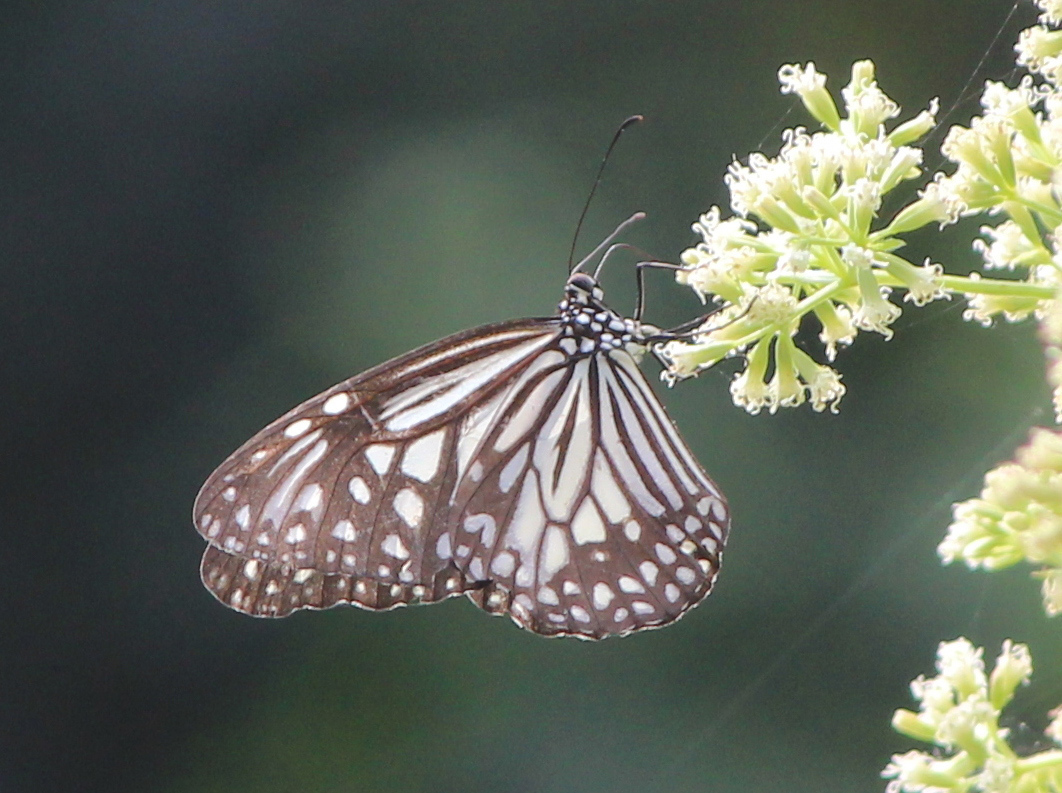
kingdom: Animalia
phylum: Arthropoda
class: Insecta
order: Lepidoptera
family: Nymphalidae
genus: Parantica
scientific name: Parantica aglea
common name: Glassy tiger
